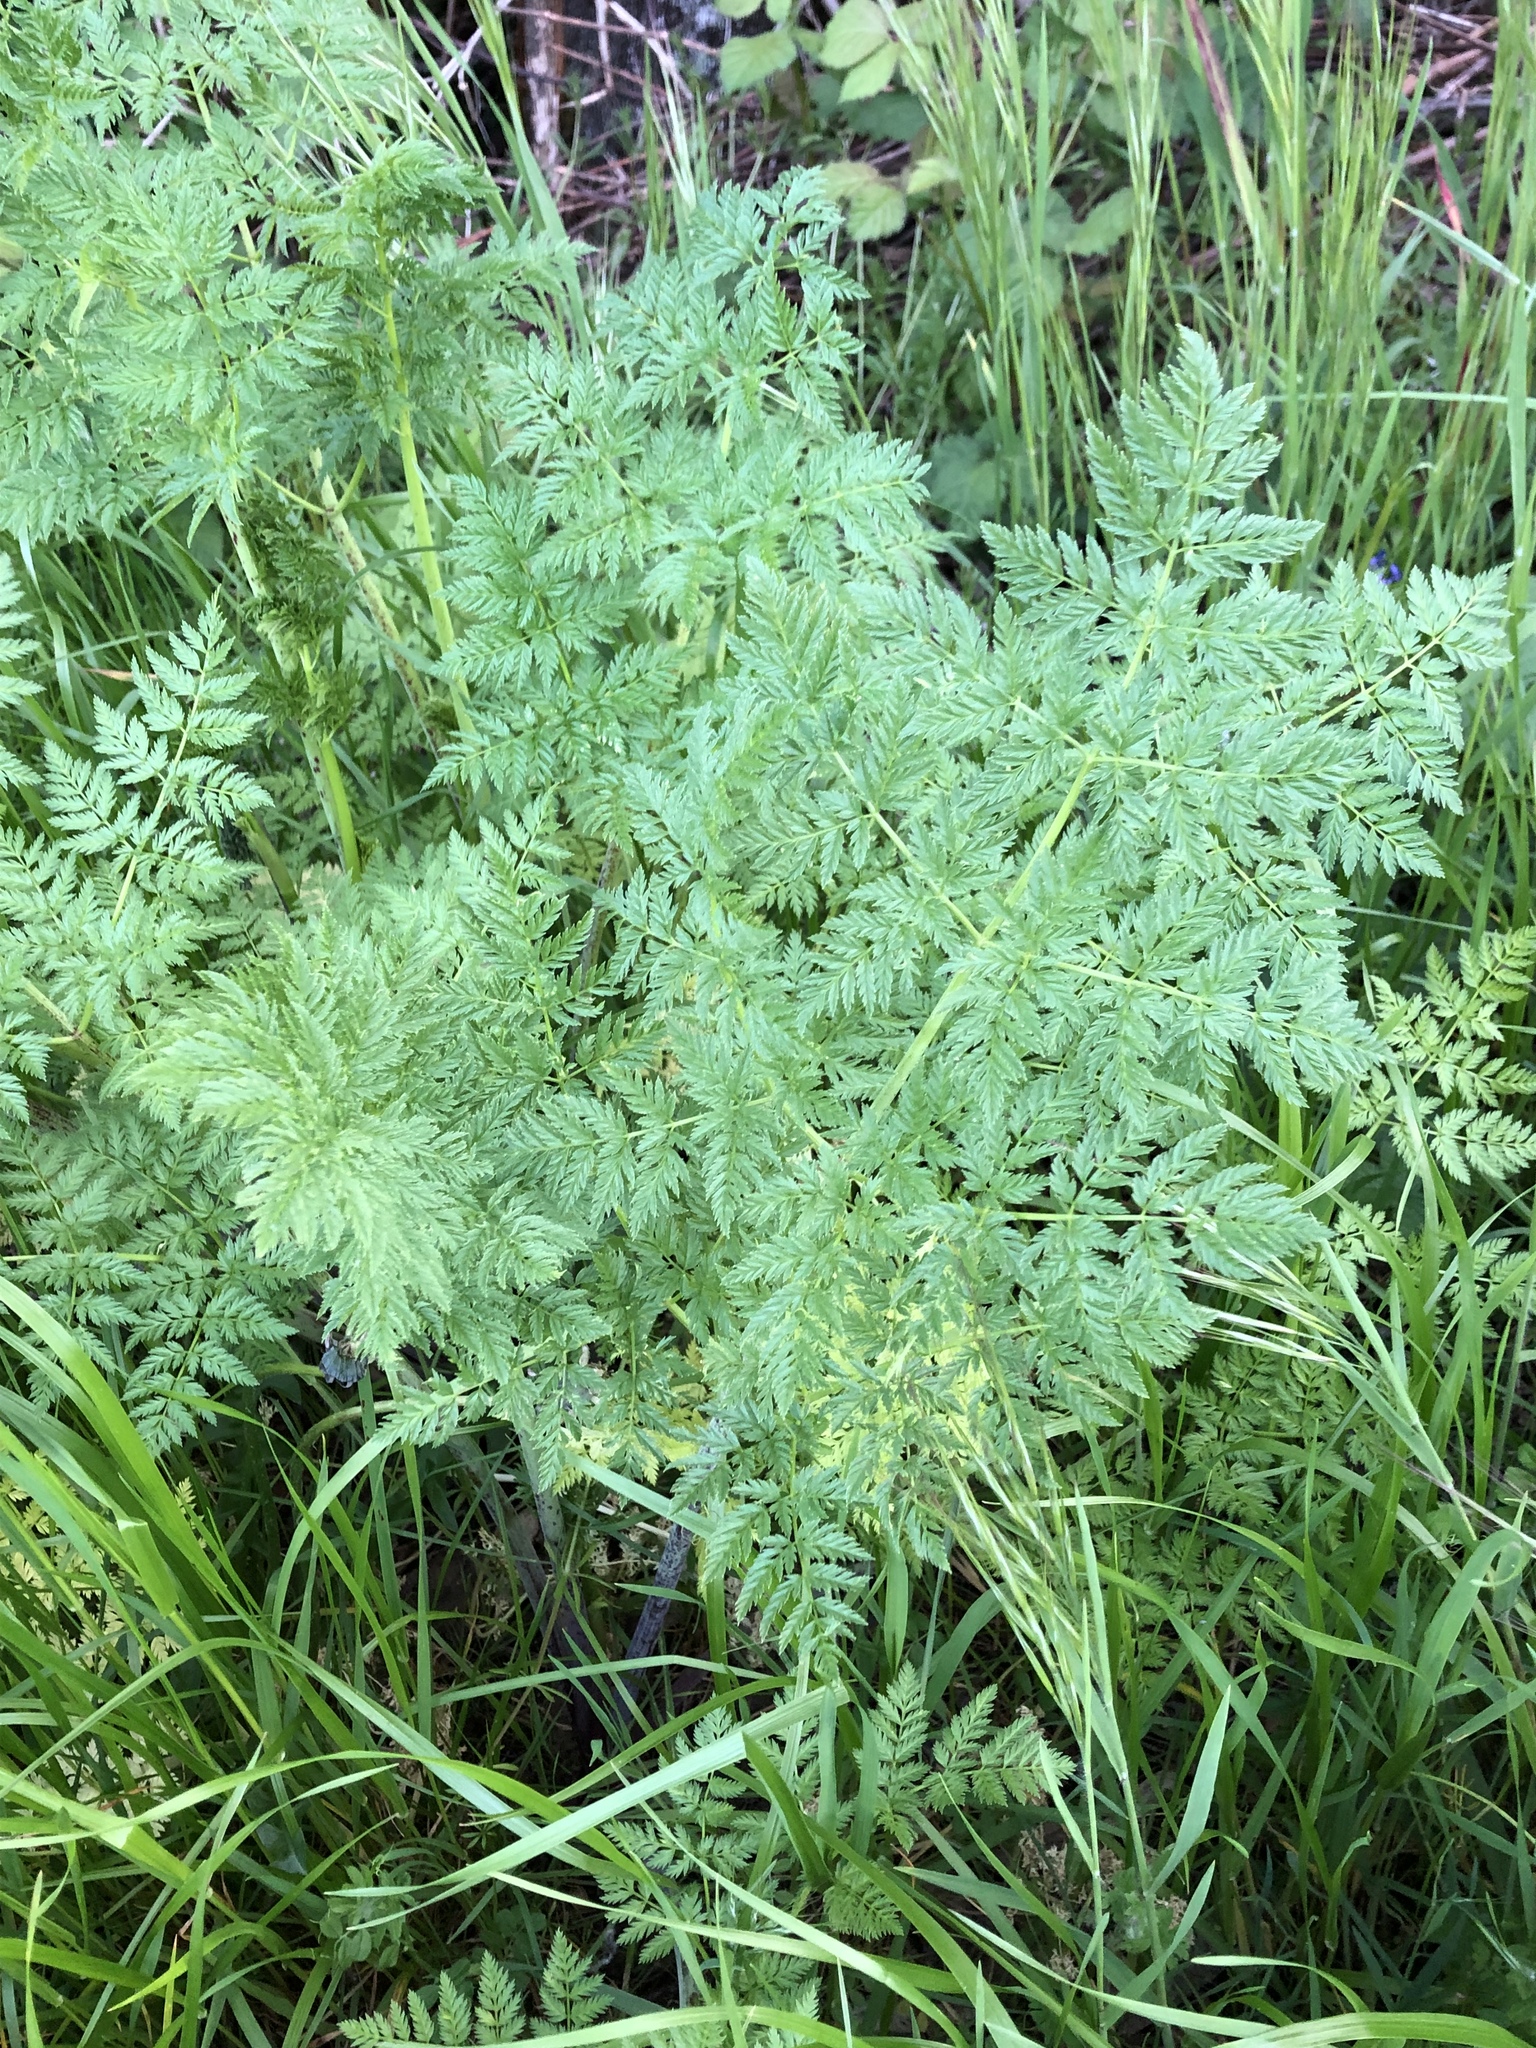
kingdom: Plantae
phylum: Tracheophyta
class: Magnoliopsida
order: Apiales
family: Apiaceae
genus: Conium
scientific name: Conium maculatum
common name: Hemlock
